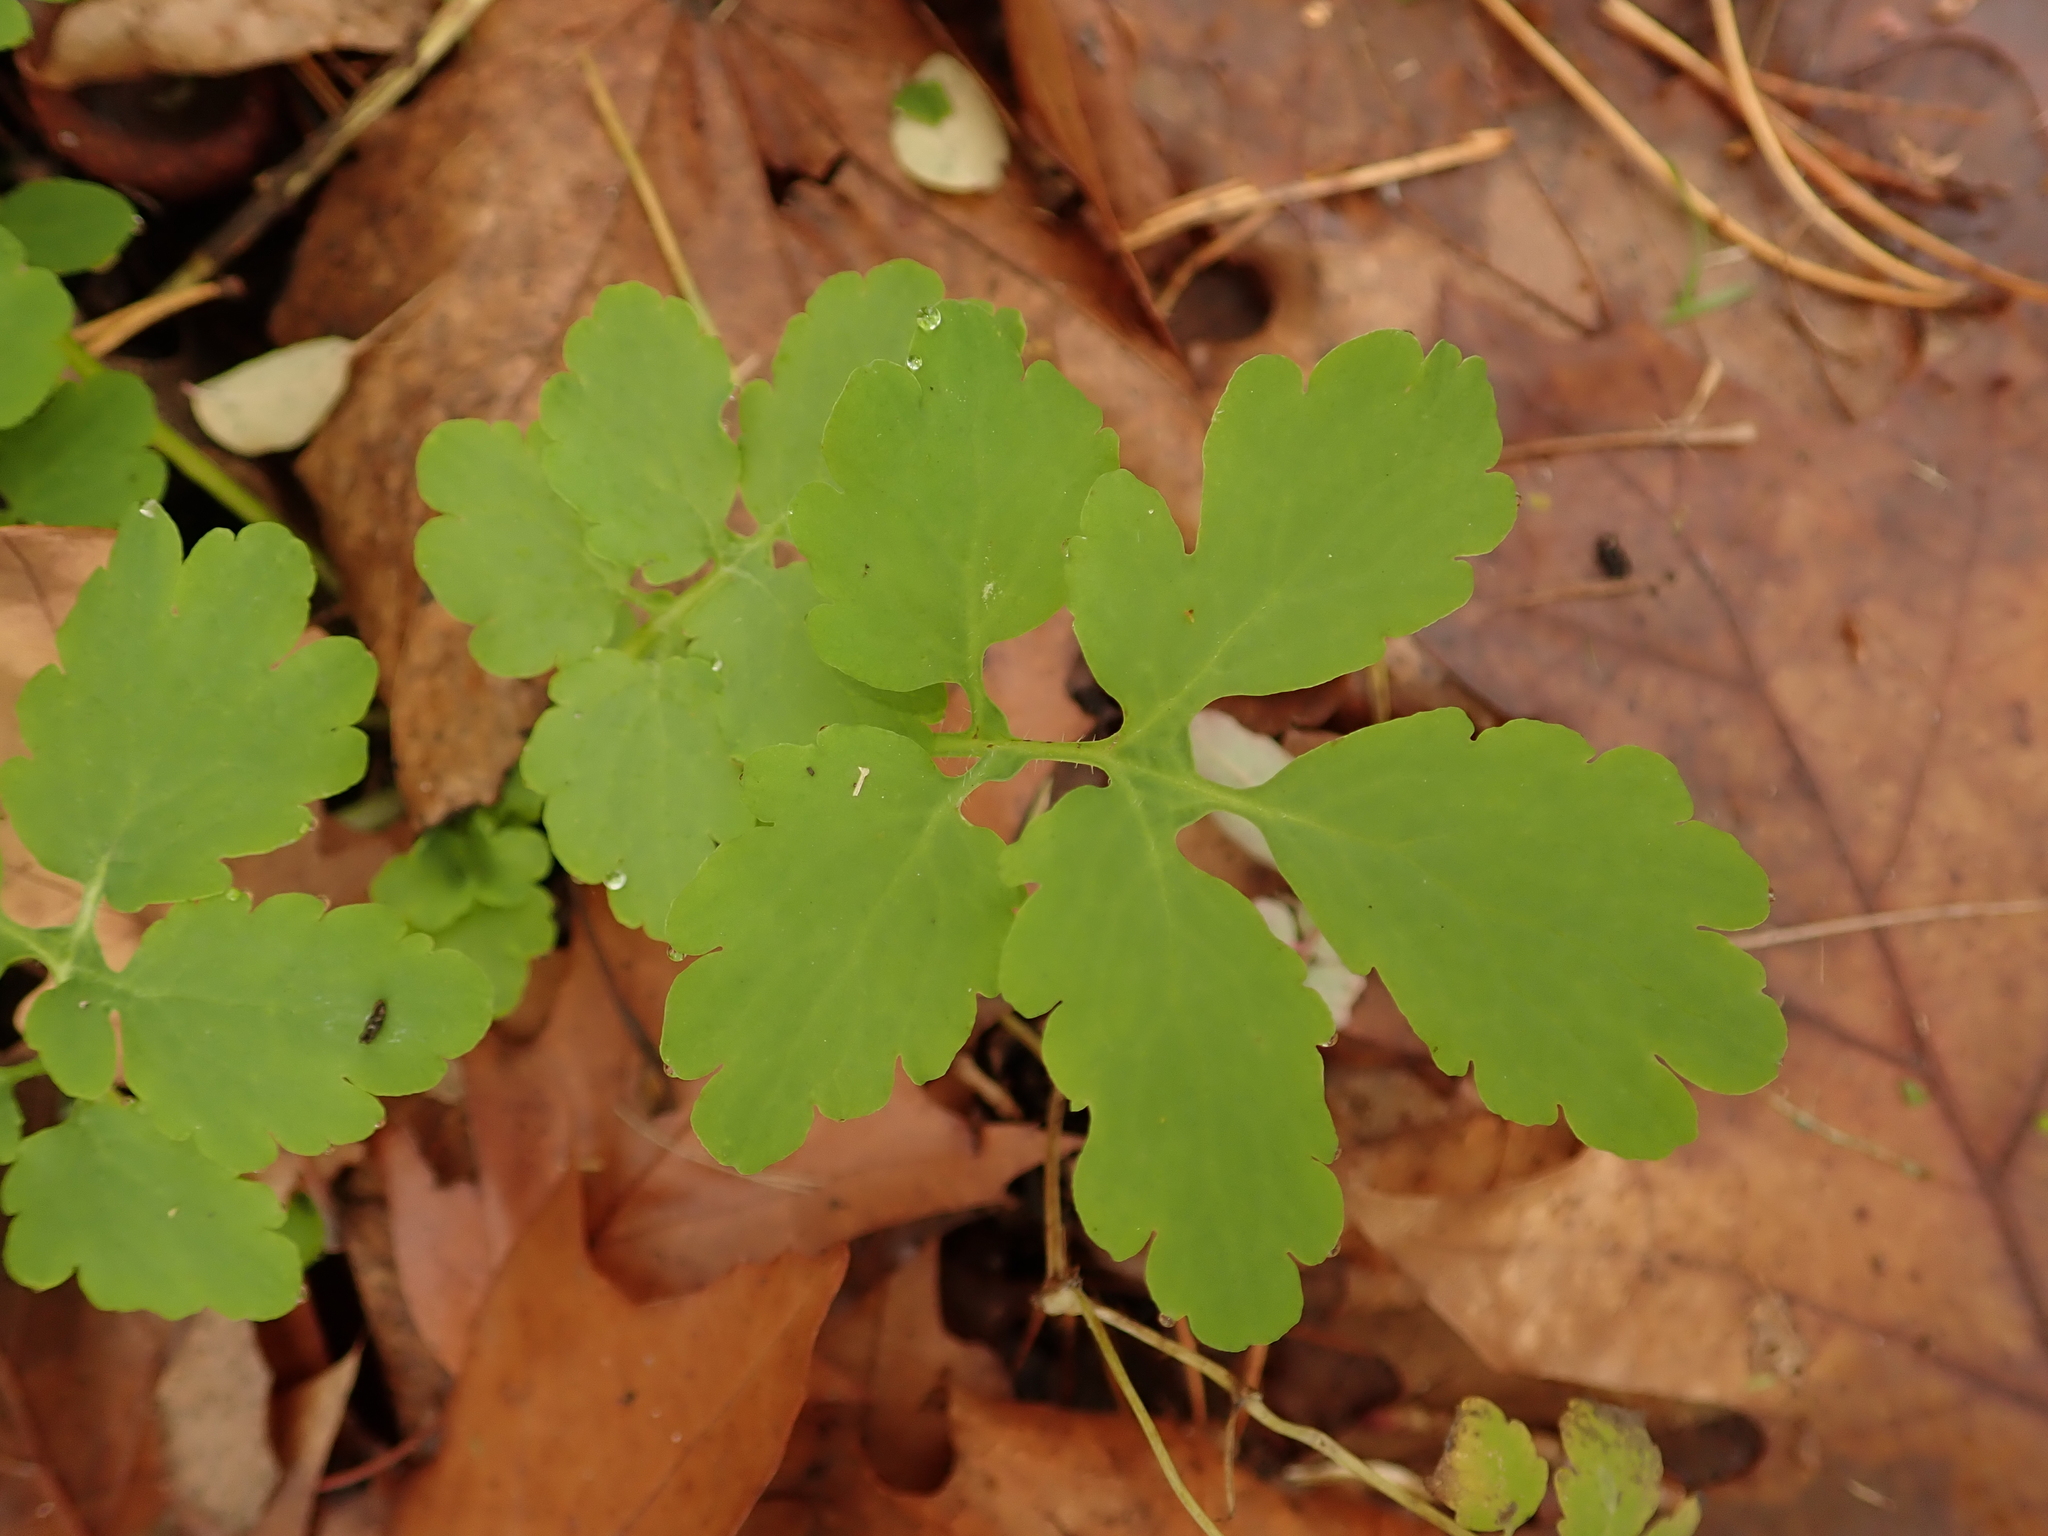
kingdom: Plantae
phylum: Tracheophyta
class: Magnoliopsida
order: Ranunculales
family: Papaveraceae
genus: Chelidonium
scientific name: Chelidonium majus
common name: Greater celandine
